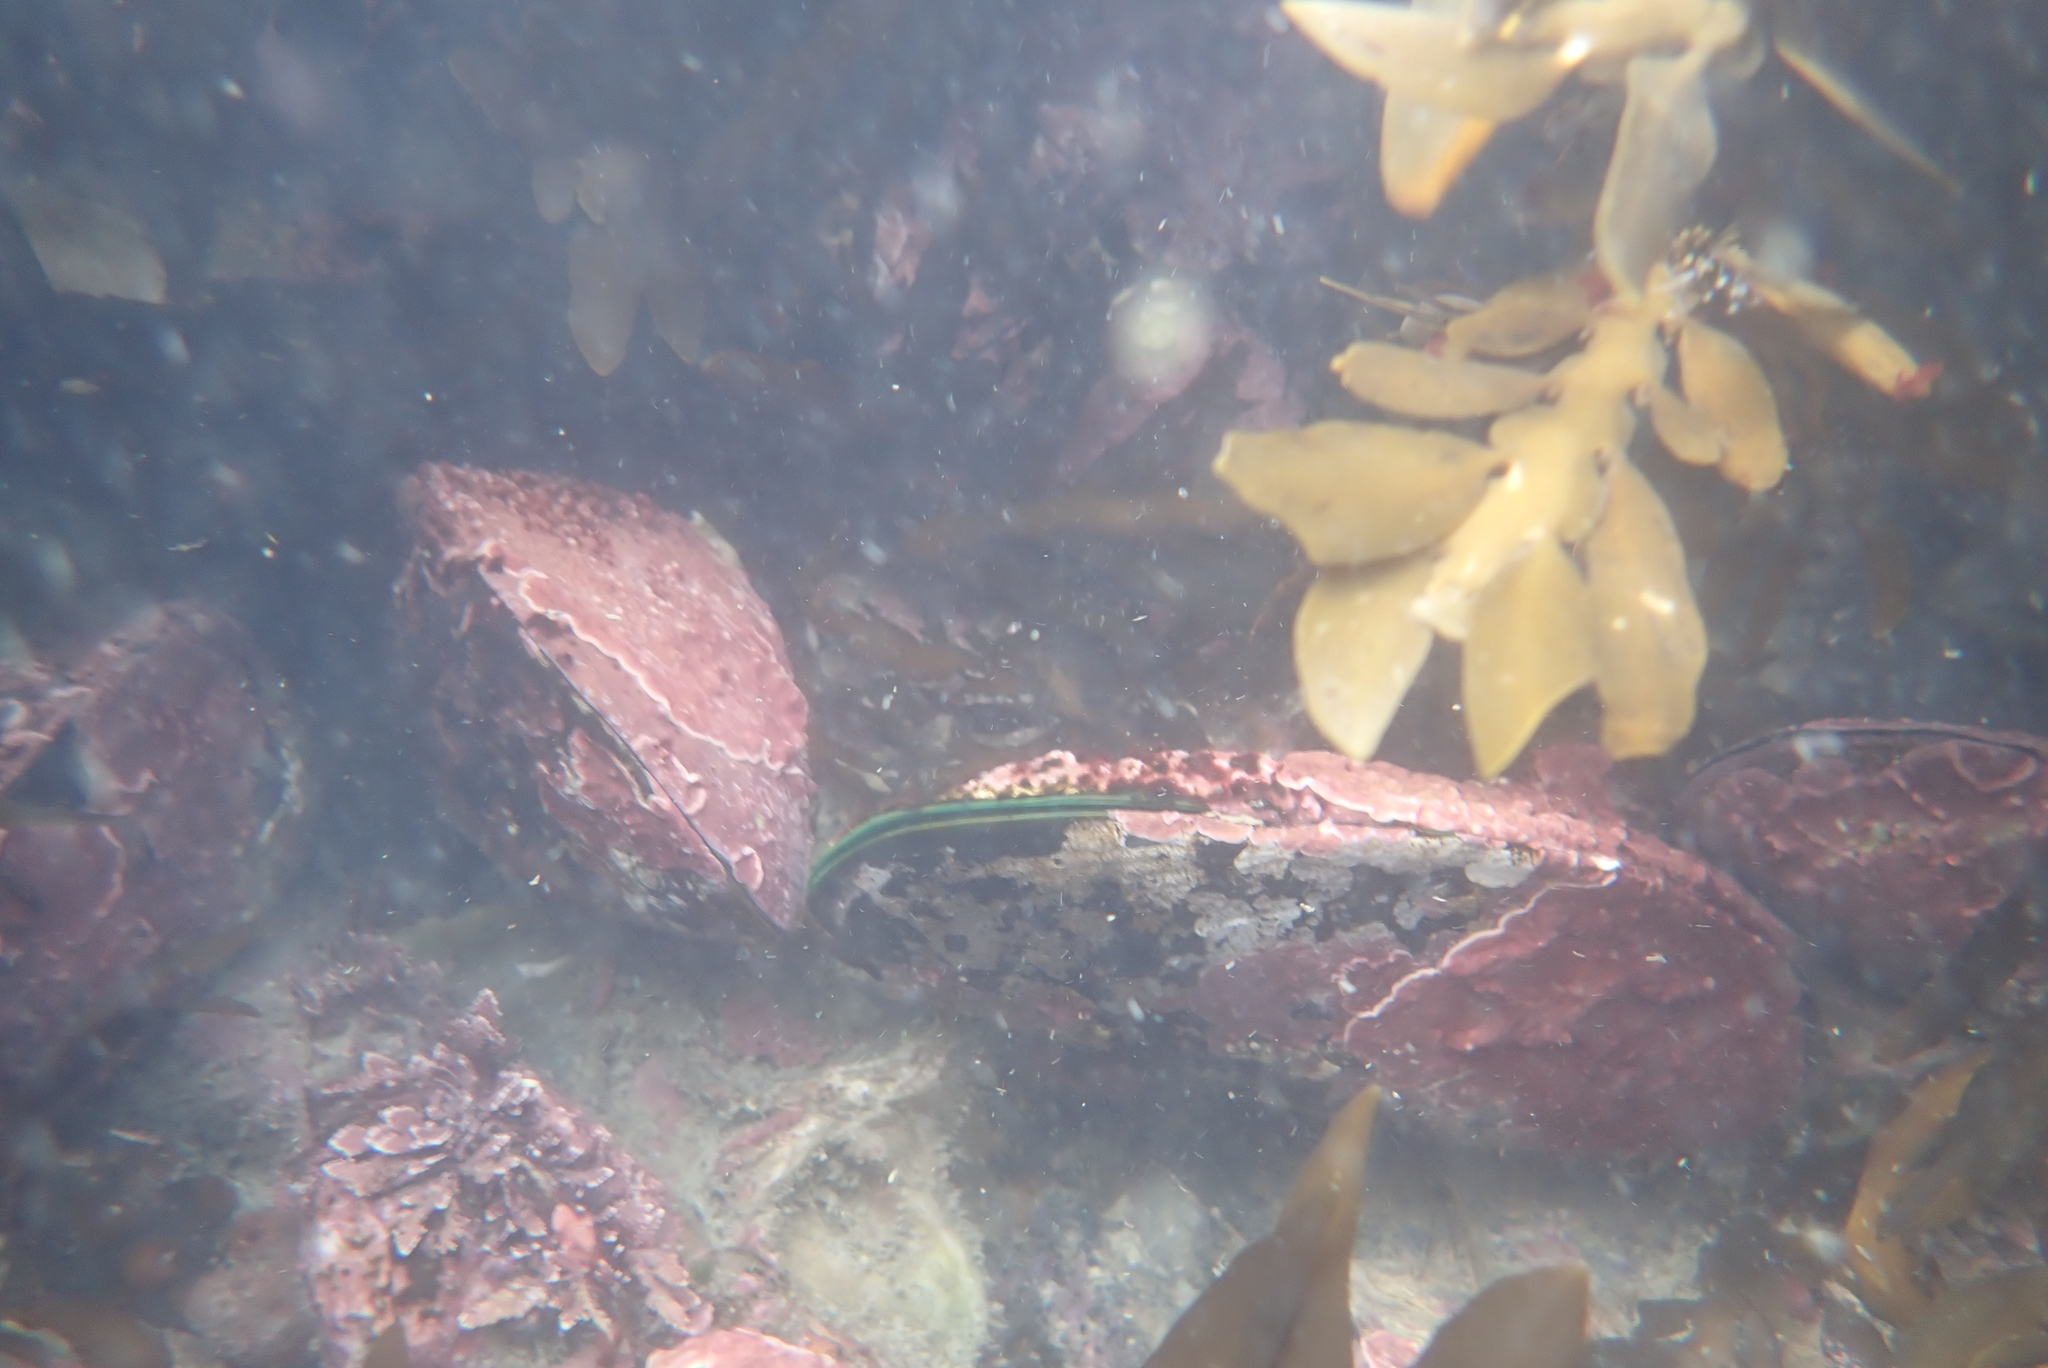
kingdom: Animalia
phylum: Mollusca
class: Bivalvia
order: Mytilida
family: Mytilidae
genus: Perna
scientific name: Perna canaliculus
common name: New zealand greenshelltm
